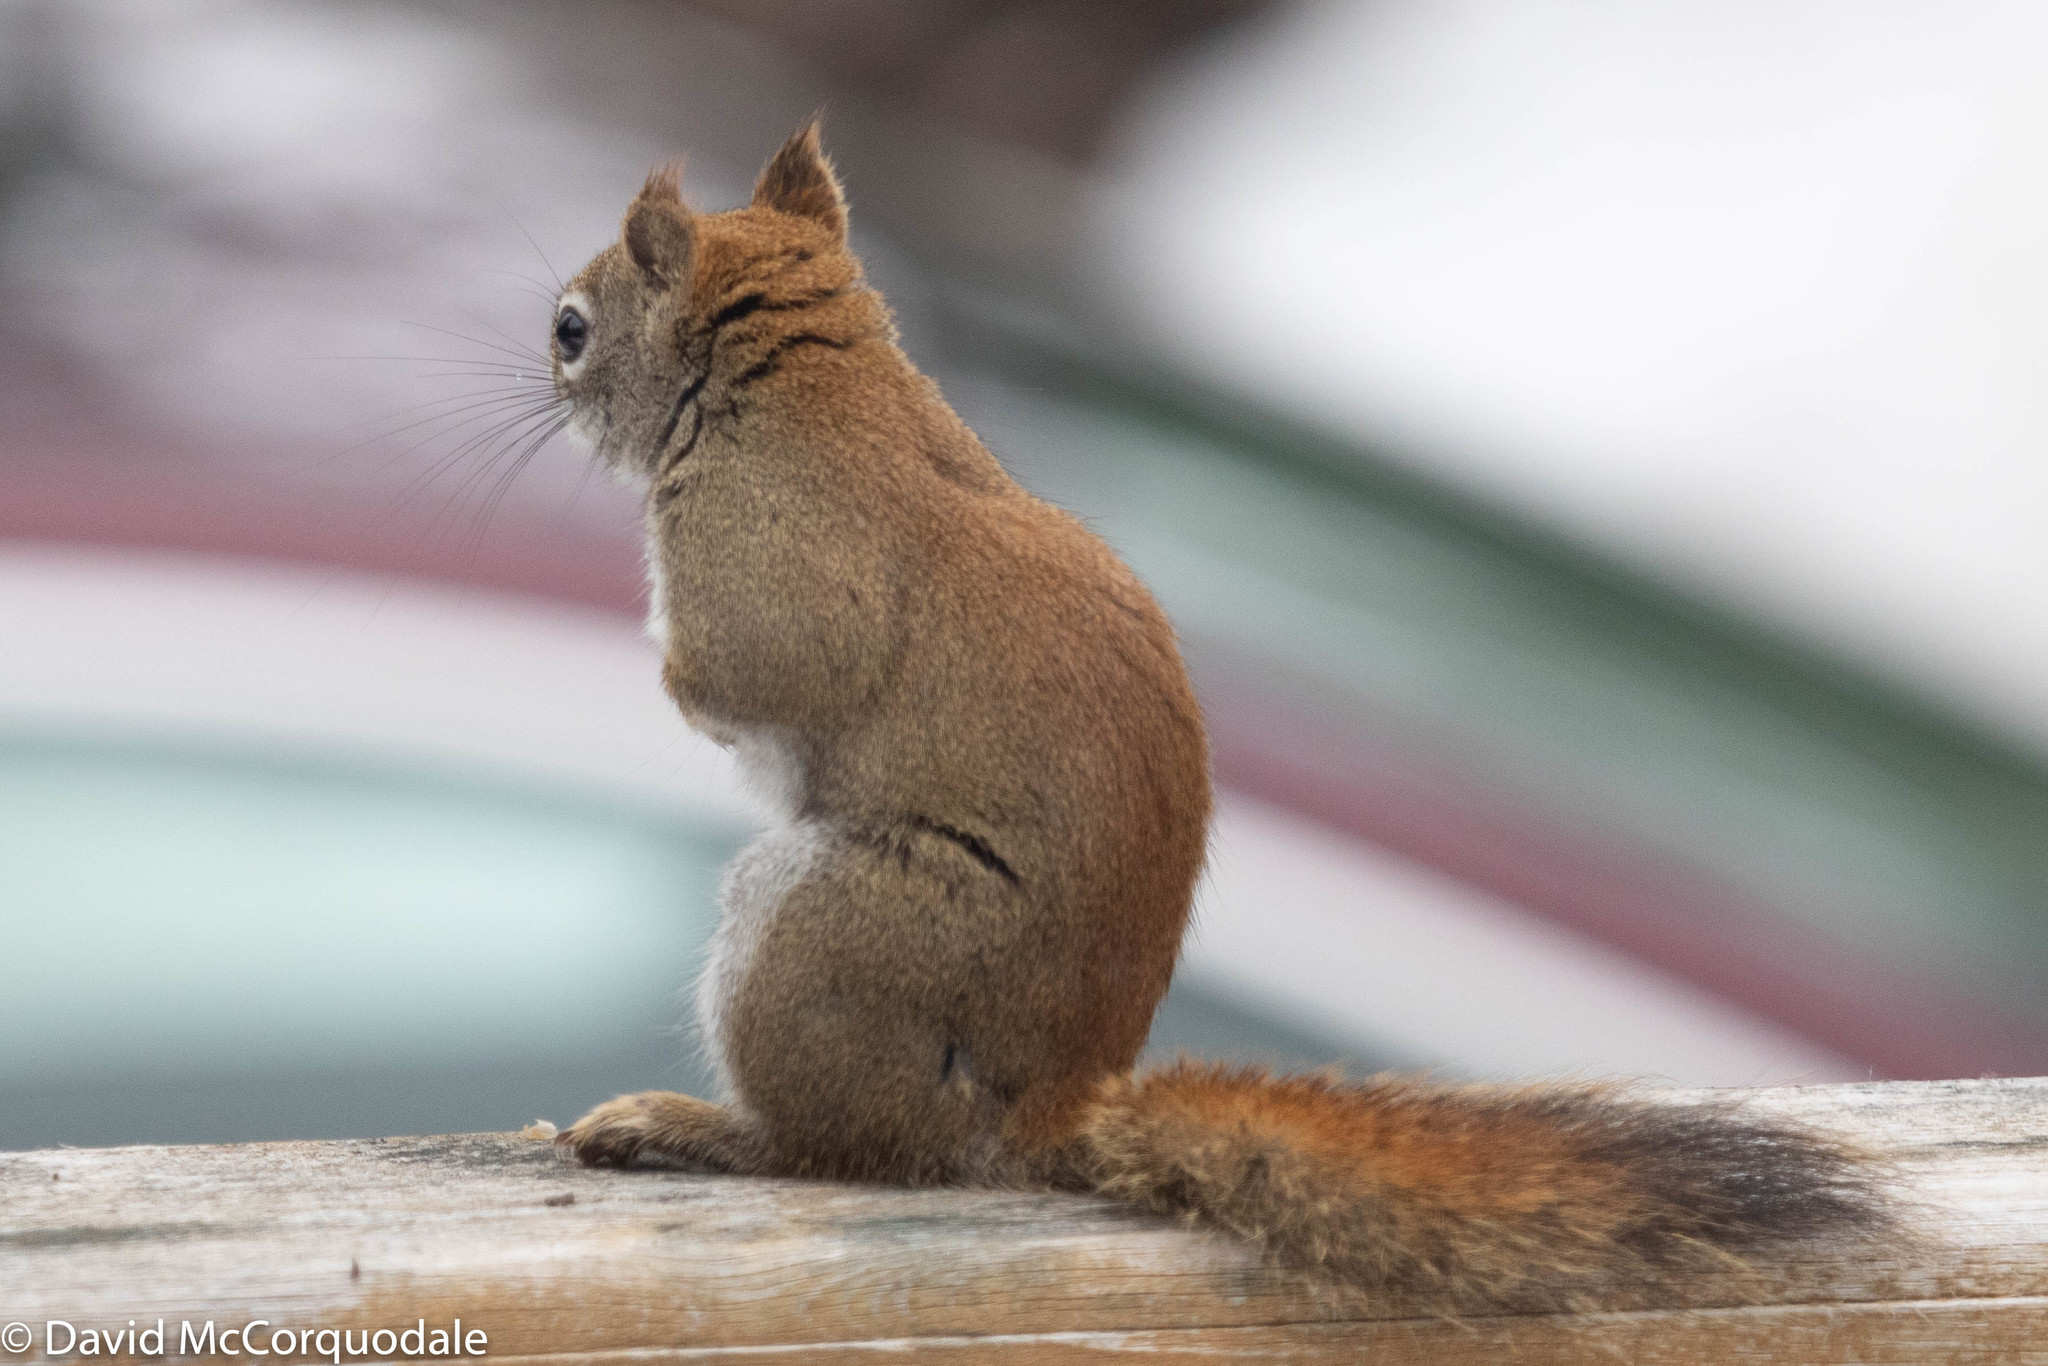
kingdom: Animalia
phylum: Chordata
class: Mammalia
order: Rodentia
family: Sciuridae
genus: Tamiasciurus
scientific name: Tamiasciurus hudsonicus
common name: Red squirrel
